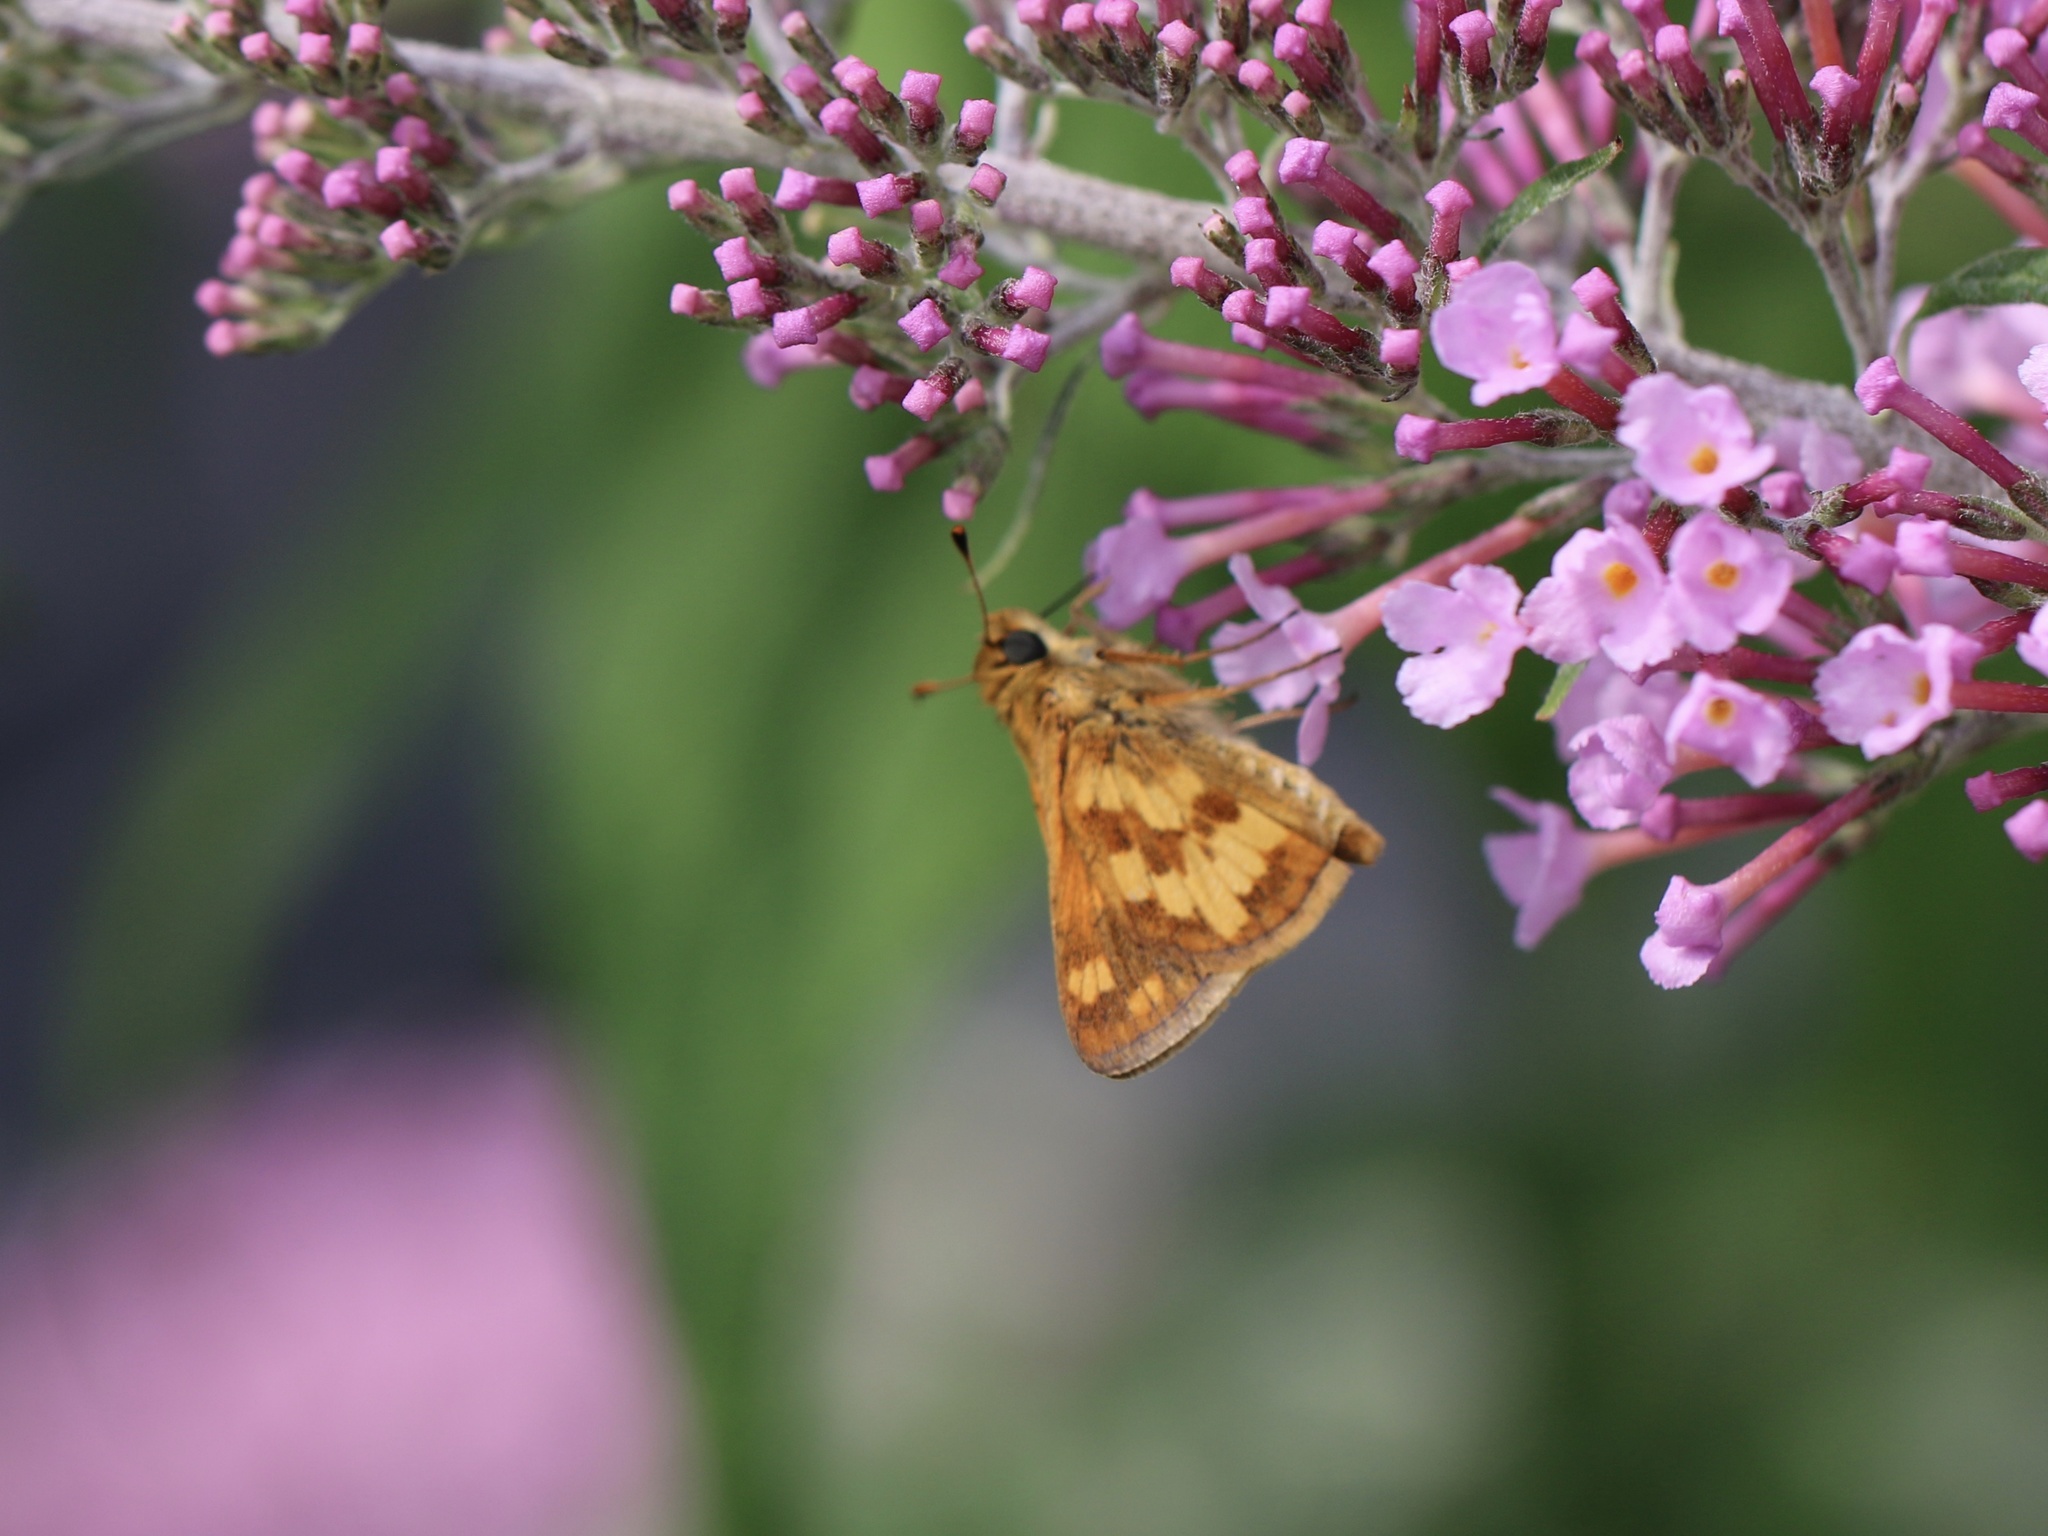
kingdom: Animalia
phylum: Arthropoda
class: Insecta
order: Lepidoptera
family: Hesperiidae
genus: Polites
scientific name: Polites coras
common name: Peck's skipper
